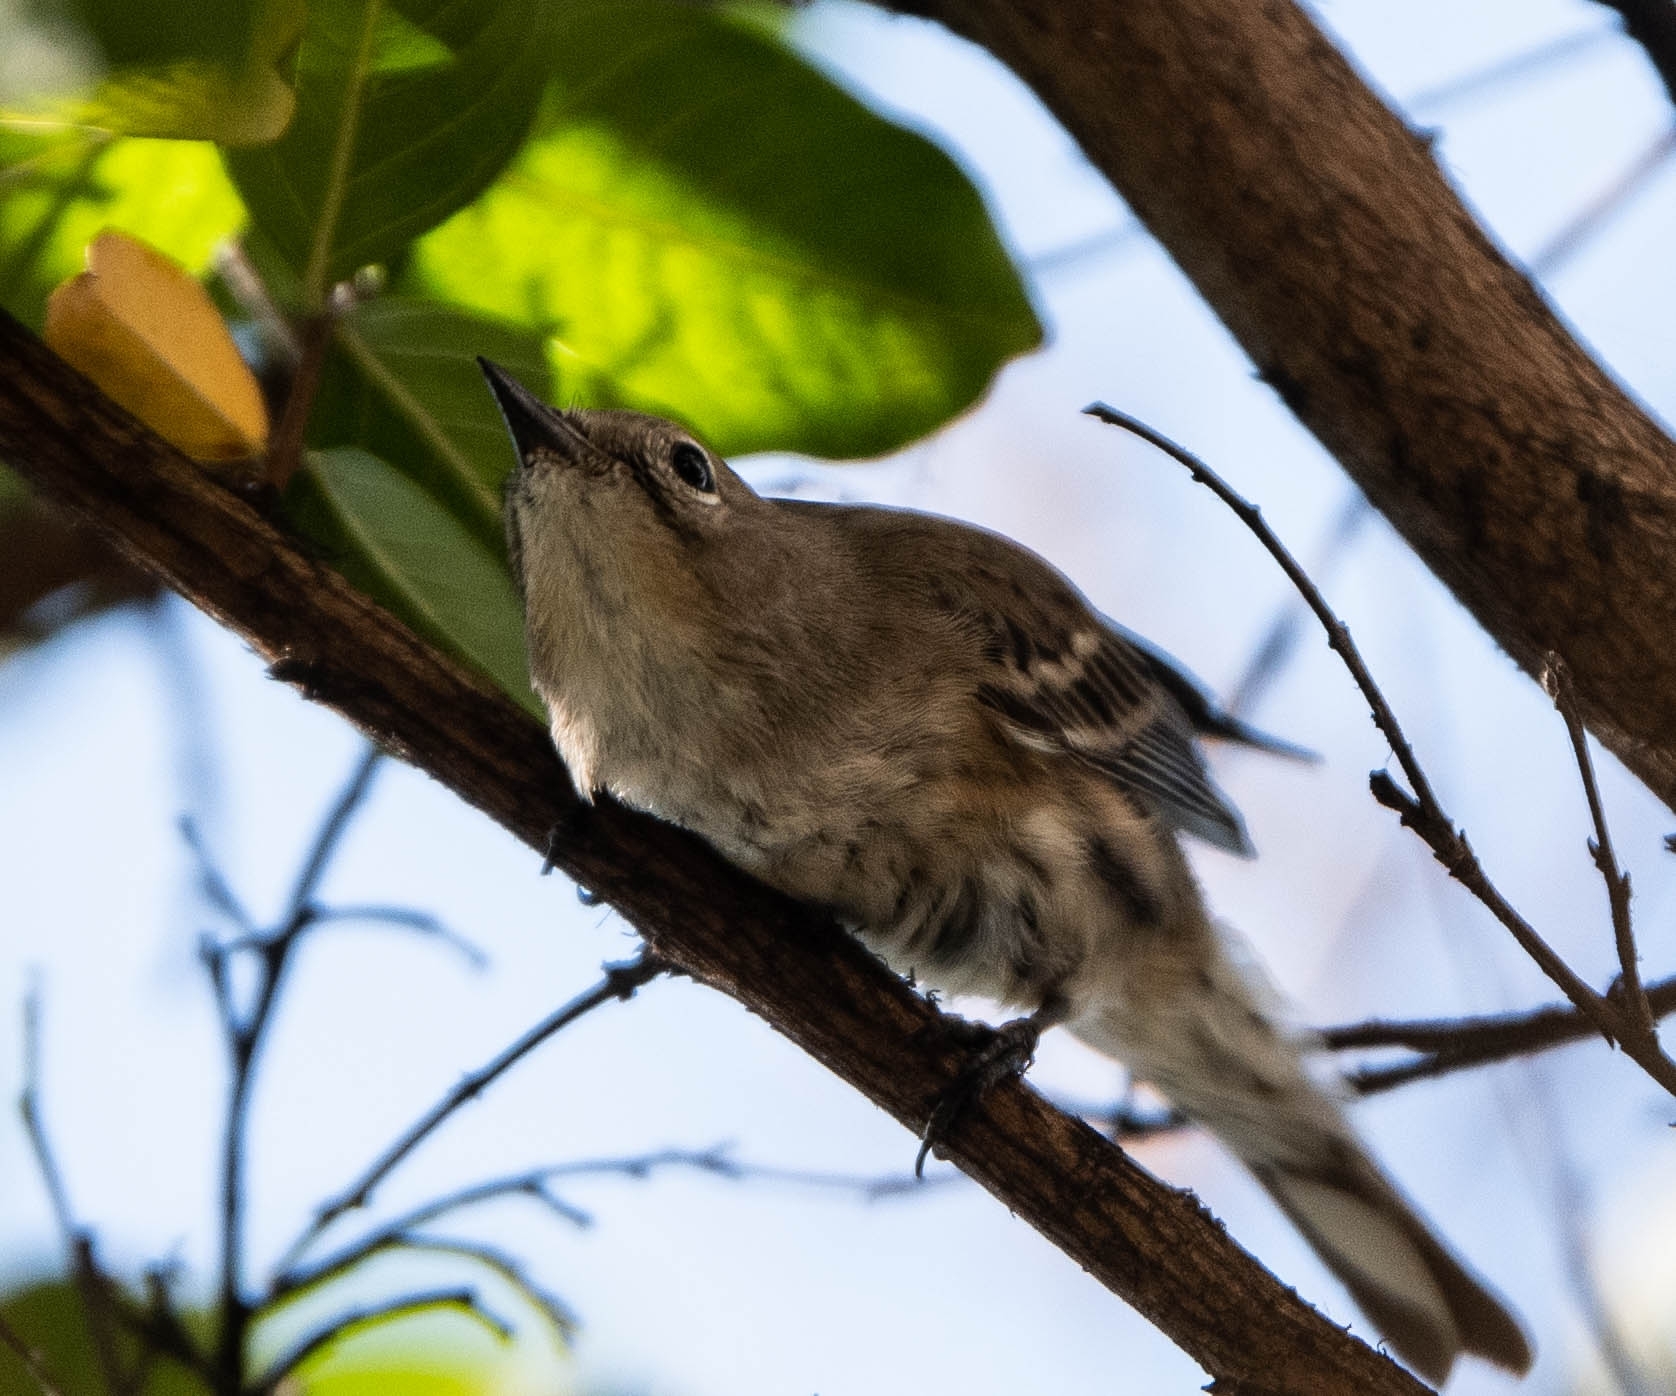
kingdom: Animalia
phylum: Chordata
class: Aves
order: Passeriformes
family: Parulidae
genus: Setophaga
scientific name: Setophaga coronata
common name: Myrtle warbler
